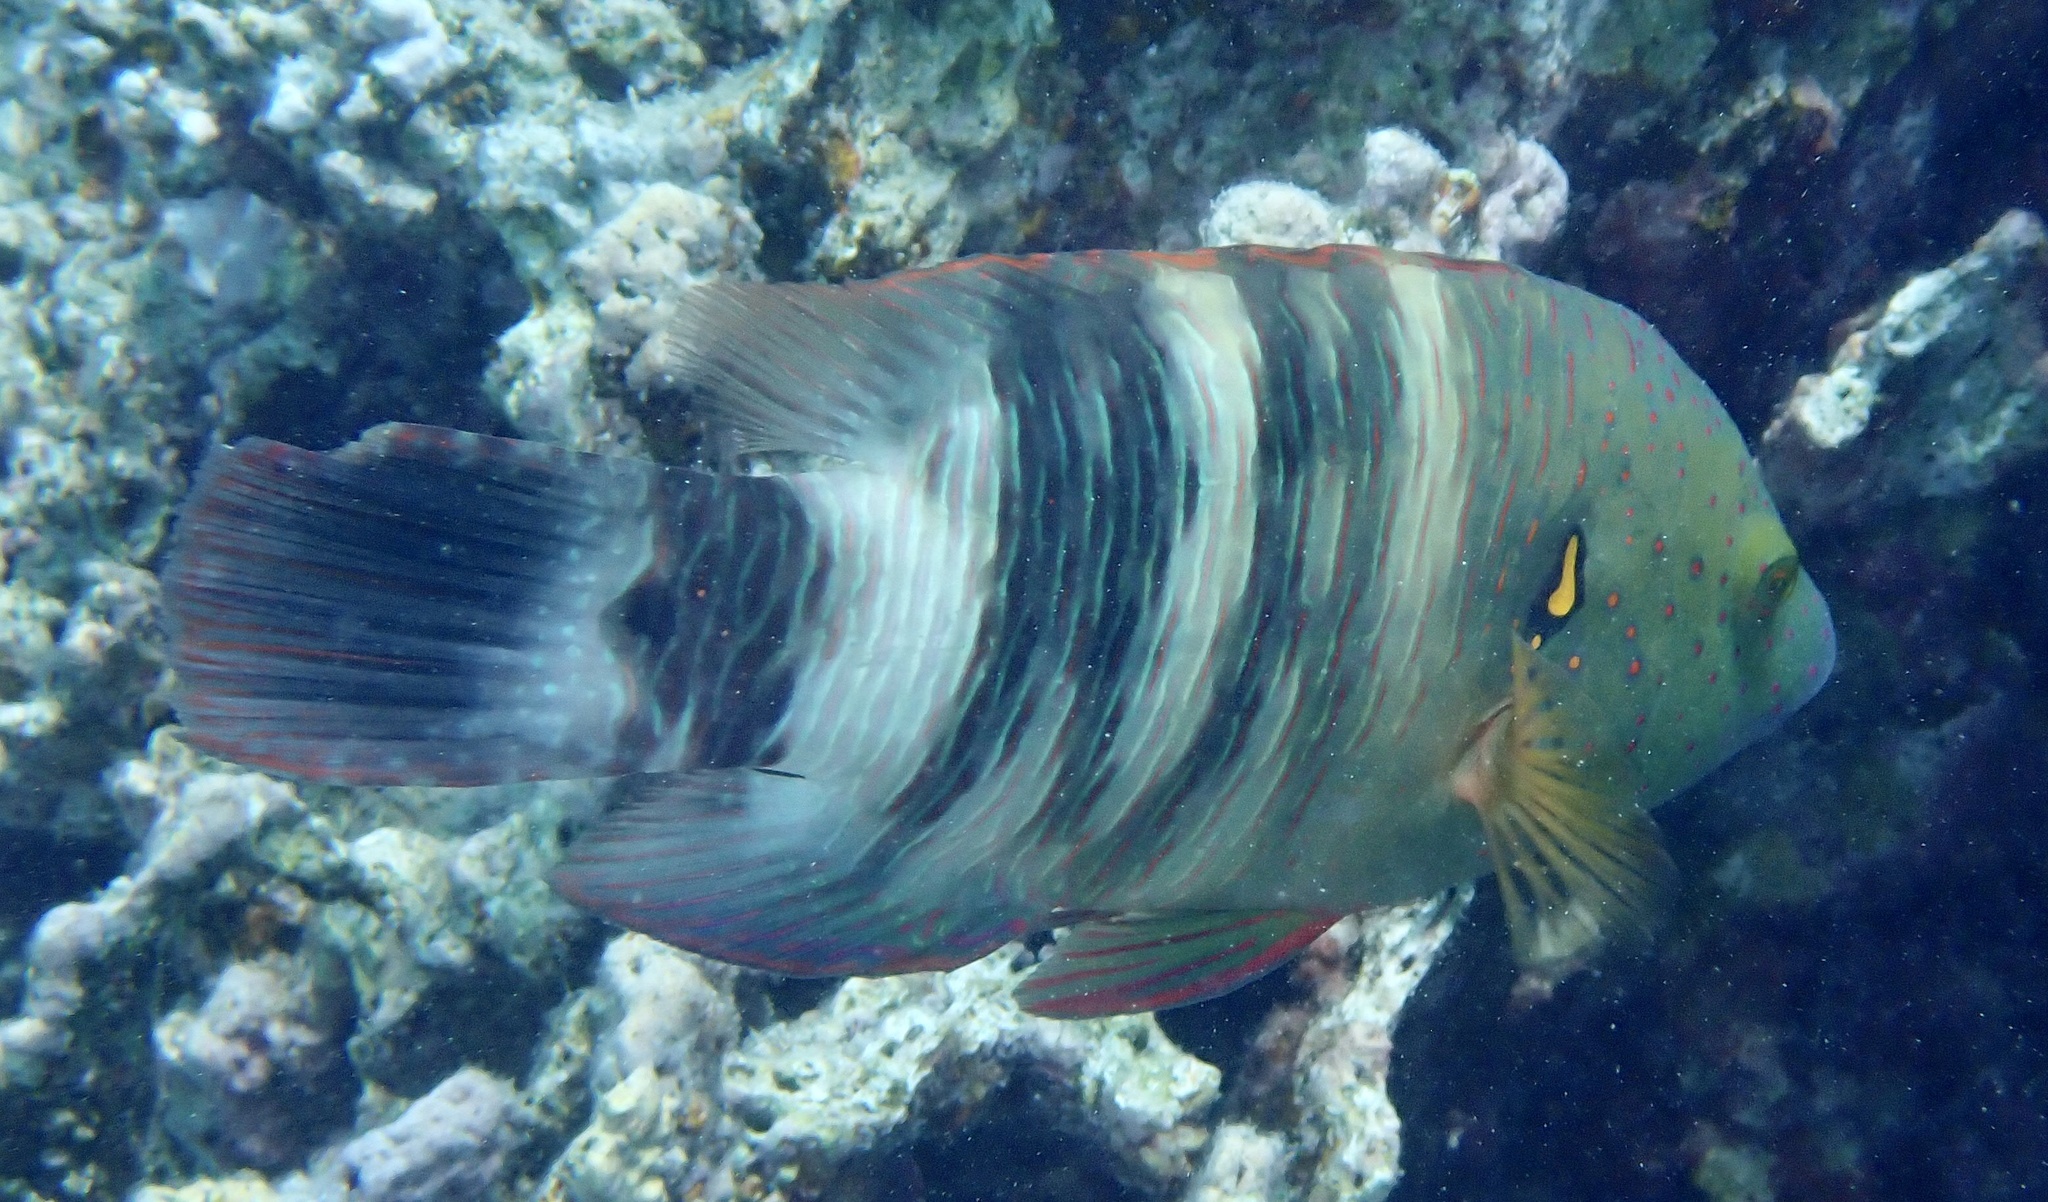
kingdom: Animalia
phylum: Chordata
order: Perciformes
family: Labridae
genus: Cheilinus
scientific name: Cheilinus lunulatus
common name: Broomtail wrasse
